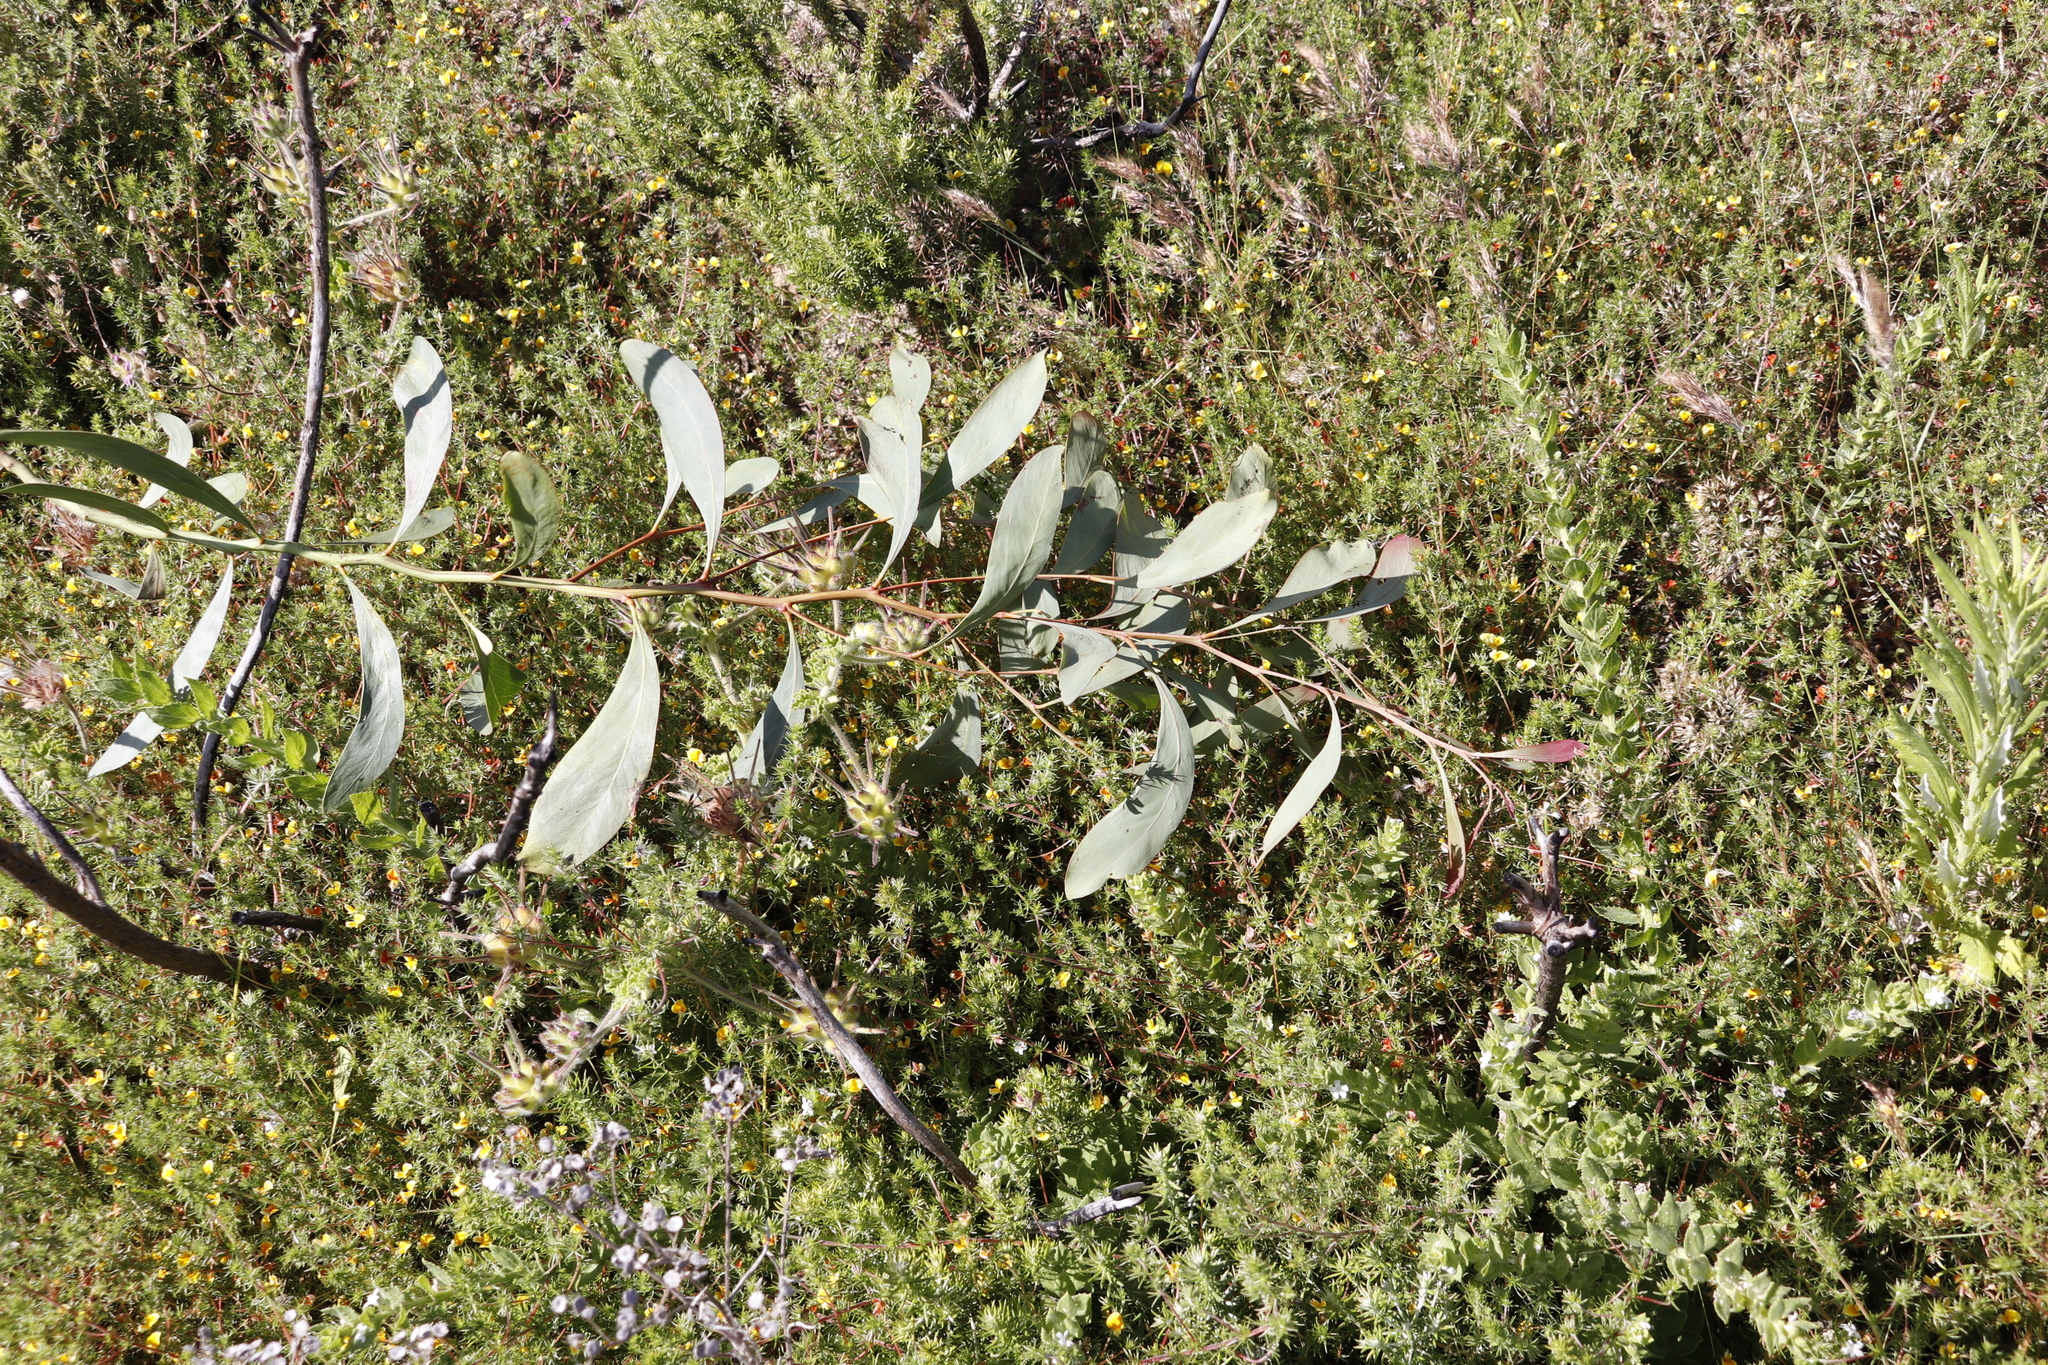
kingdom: Plantae
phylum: Tracheophyta
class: Magnoliopsida
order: Fabales
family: Fabaceae
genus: Acacia
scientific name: Acacia pycnantha
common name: Golden wattle
